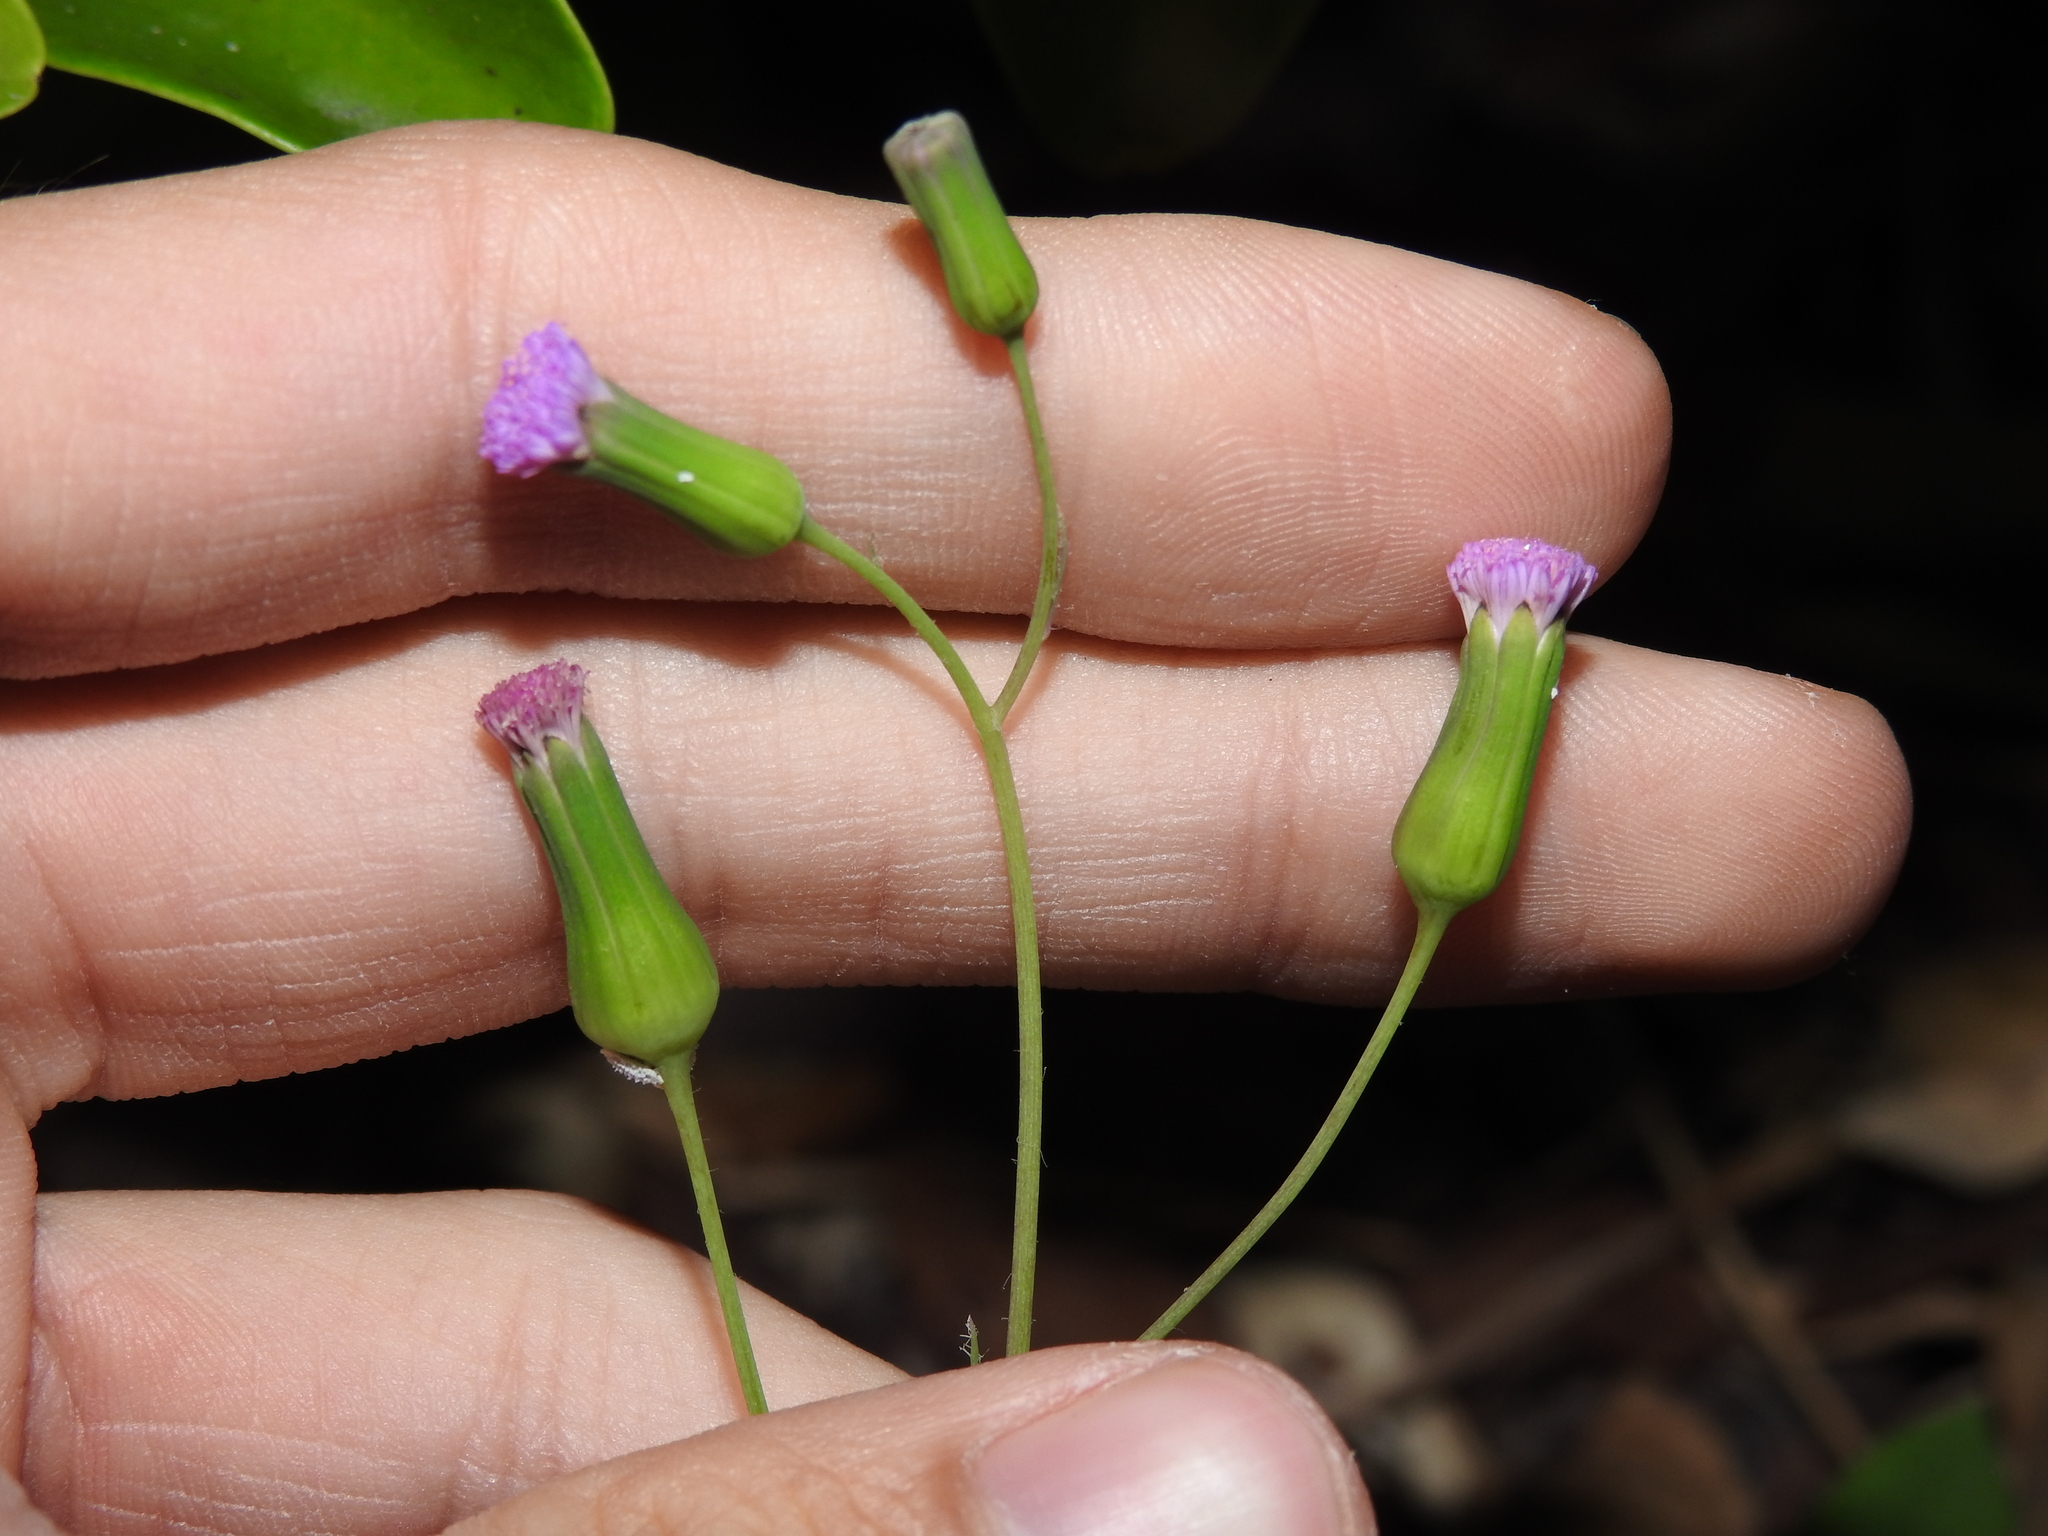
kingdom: Plantae
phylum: Tracheophyta
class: Magnoliopsida
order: Asterales
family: Asteraceae
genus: Emilia
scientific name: Emilia sonchifolia
